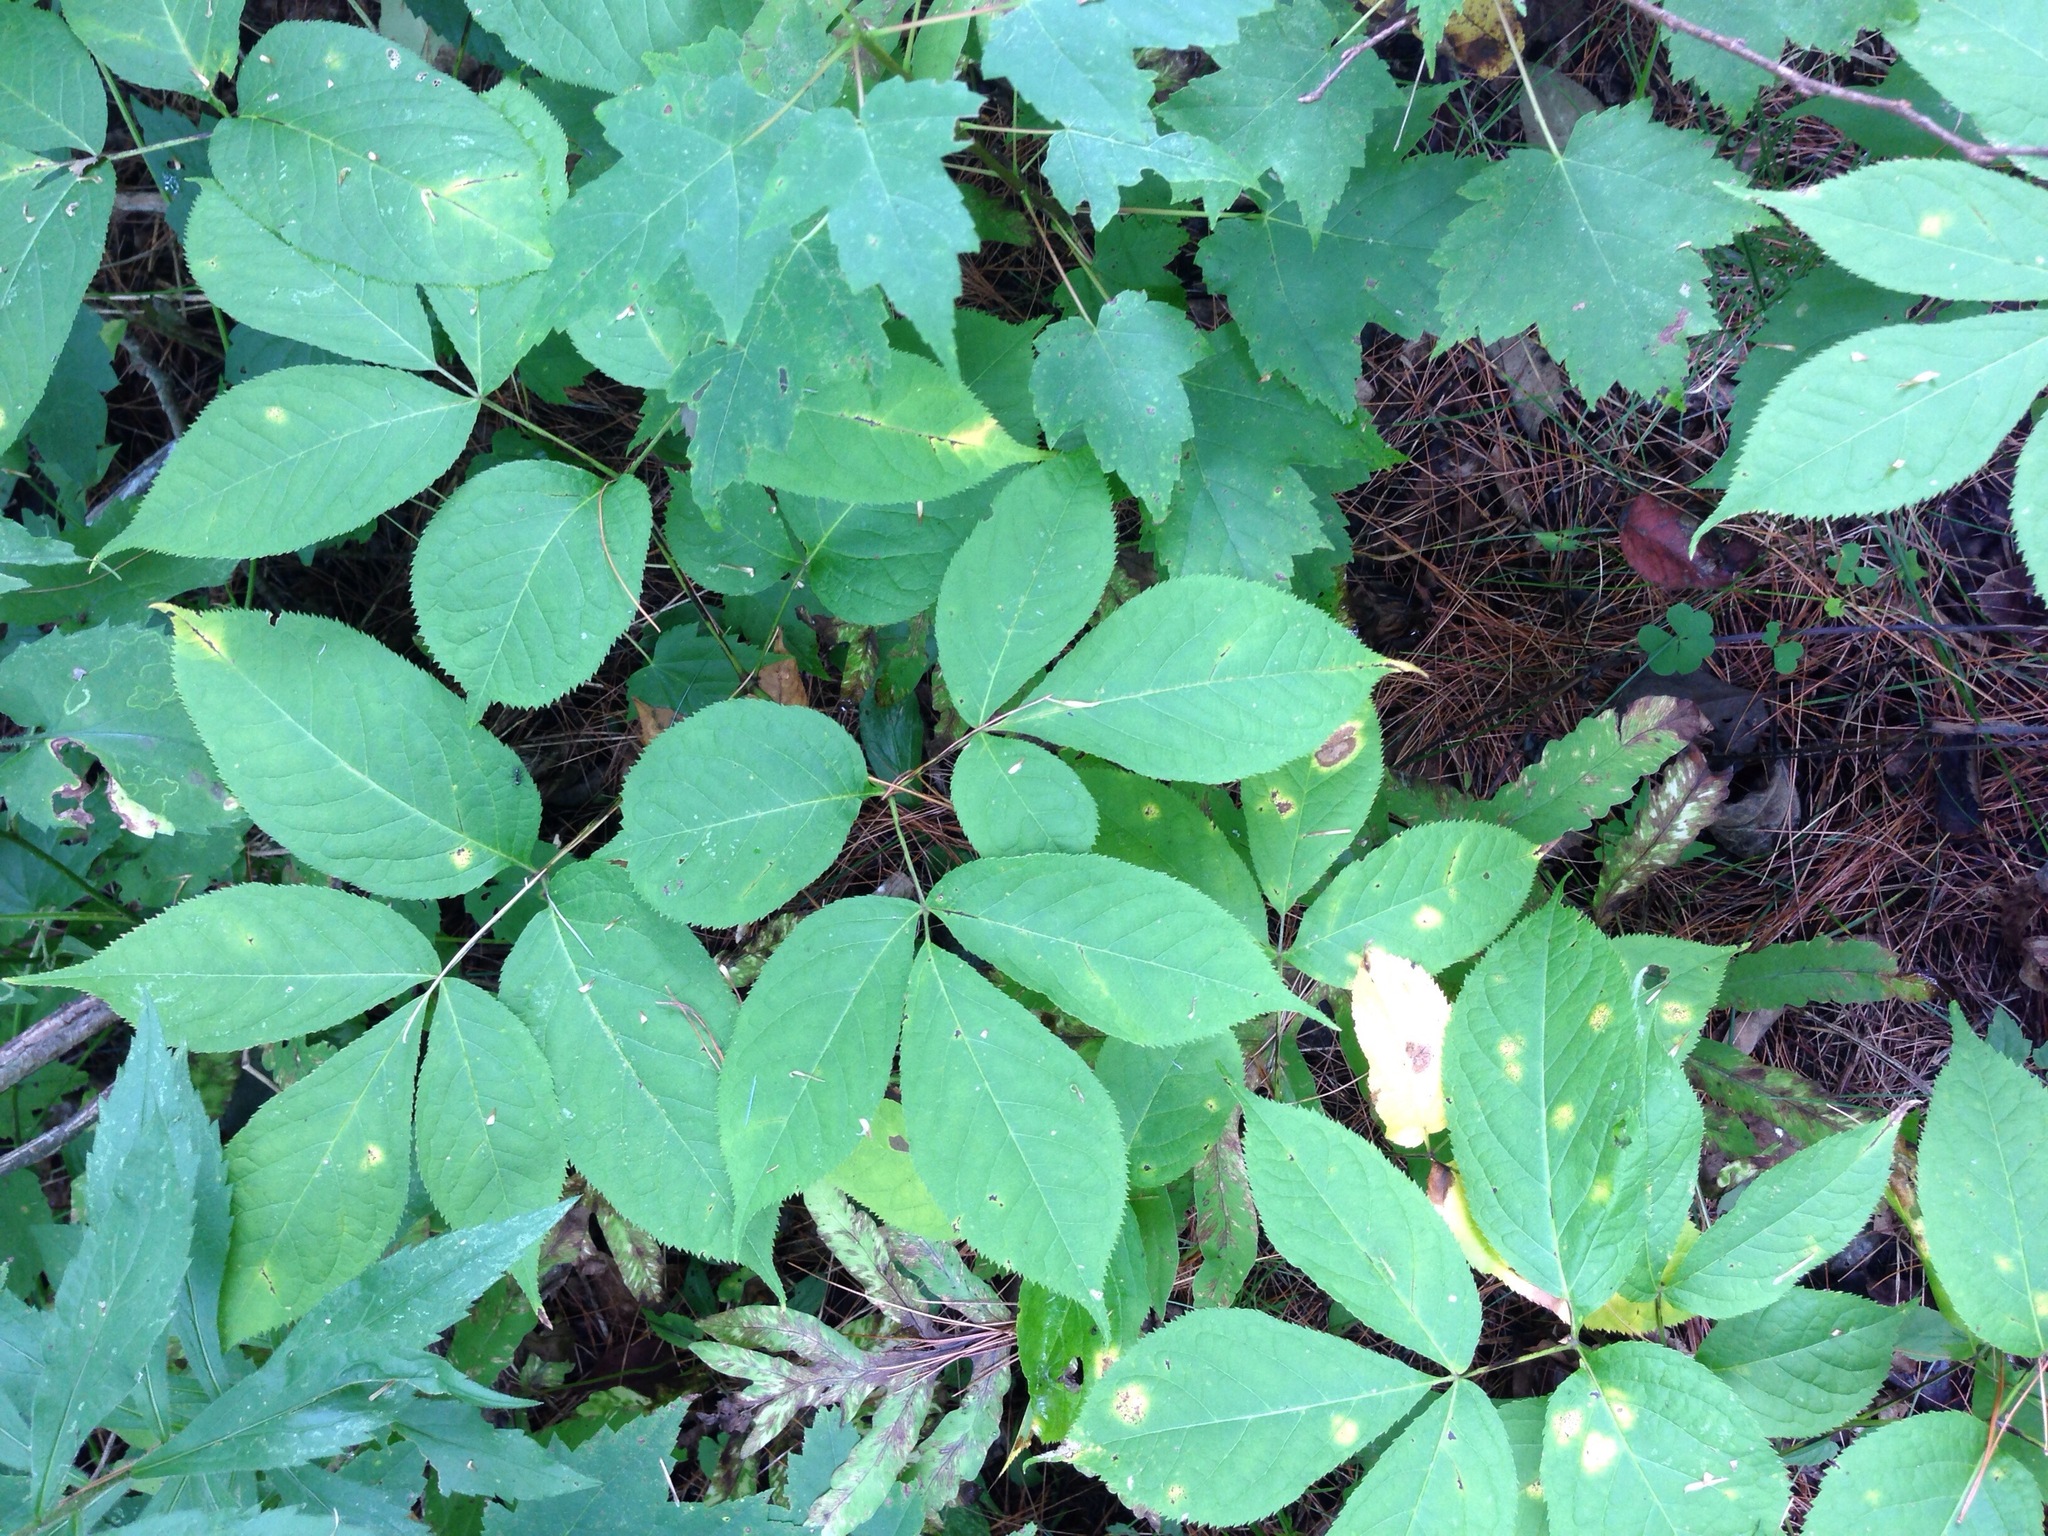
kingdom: Plantae
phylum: Tracheophyta
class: Magnoliopsida
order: Apiales
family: Araliaceae
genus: Aralia
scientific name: Aralia nudicaulis
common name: Wild sarsaparilla
